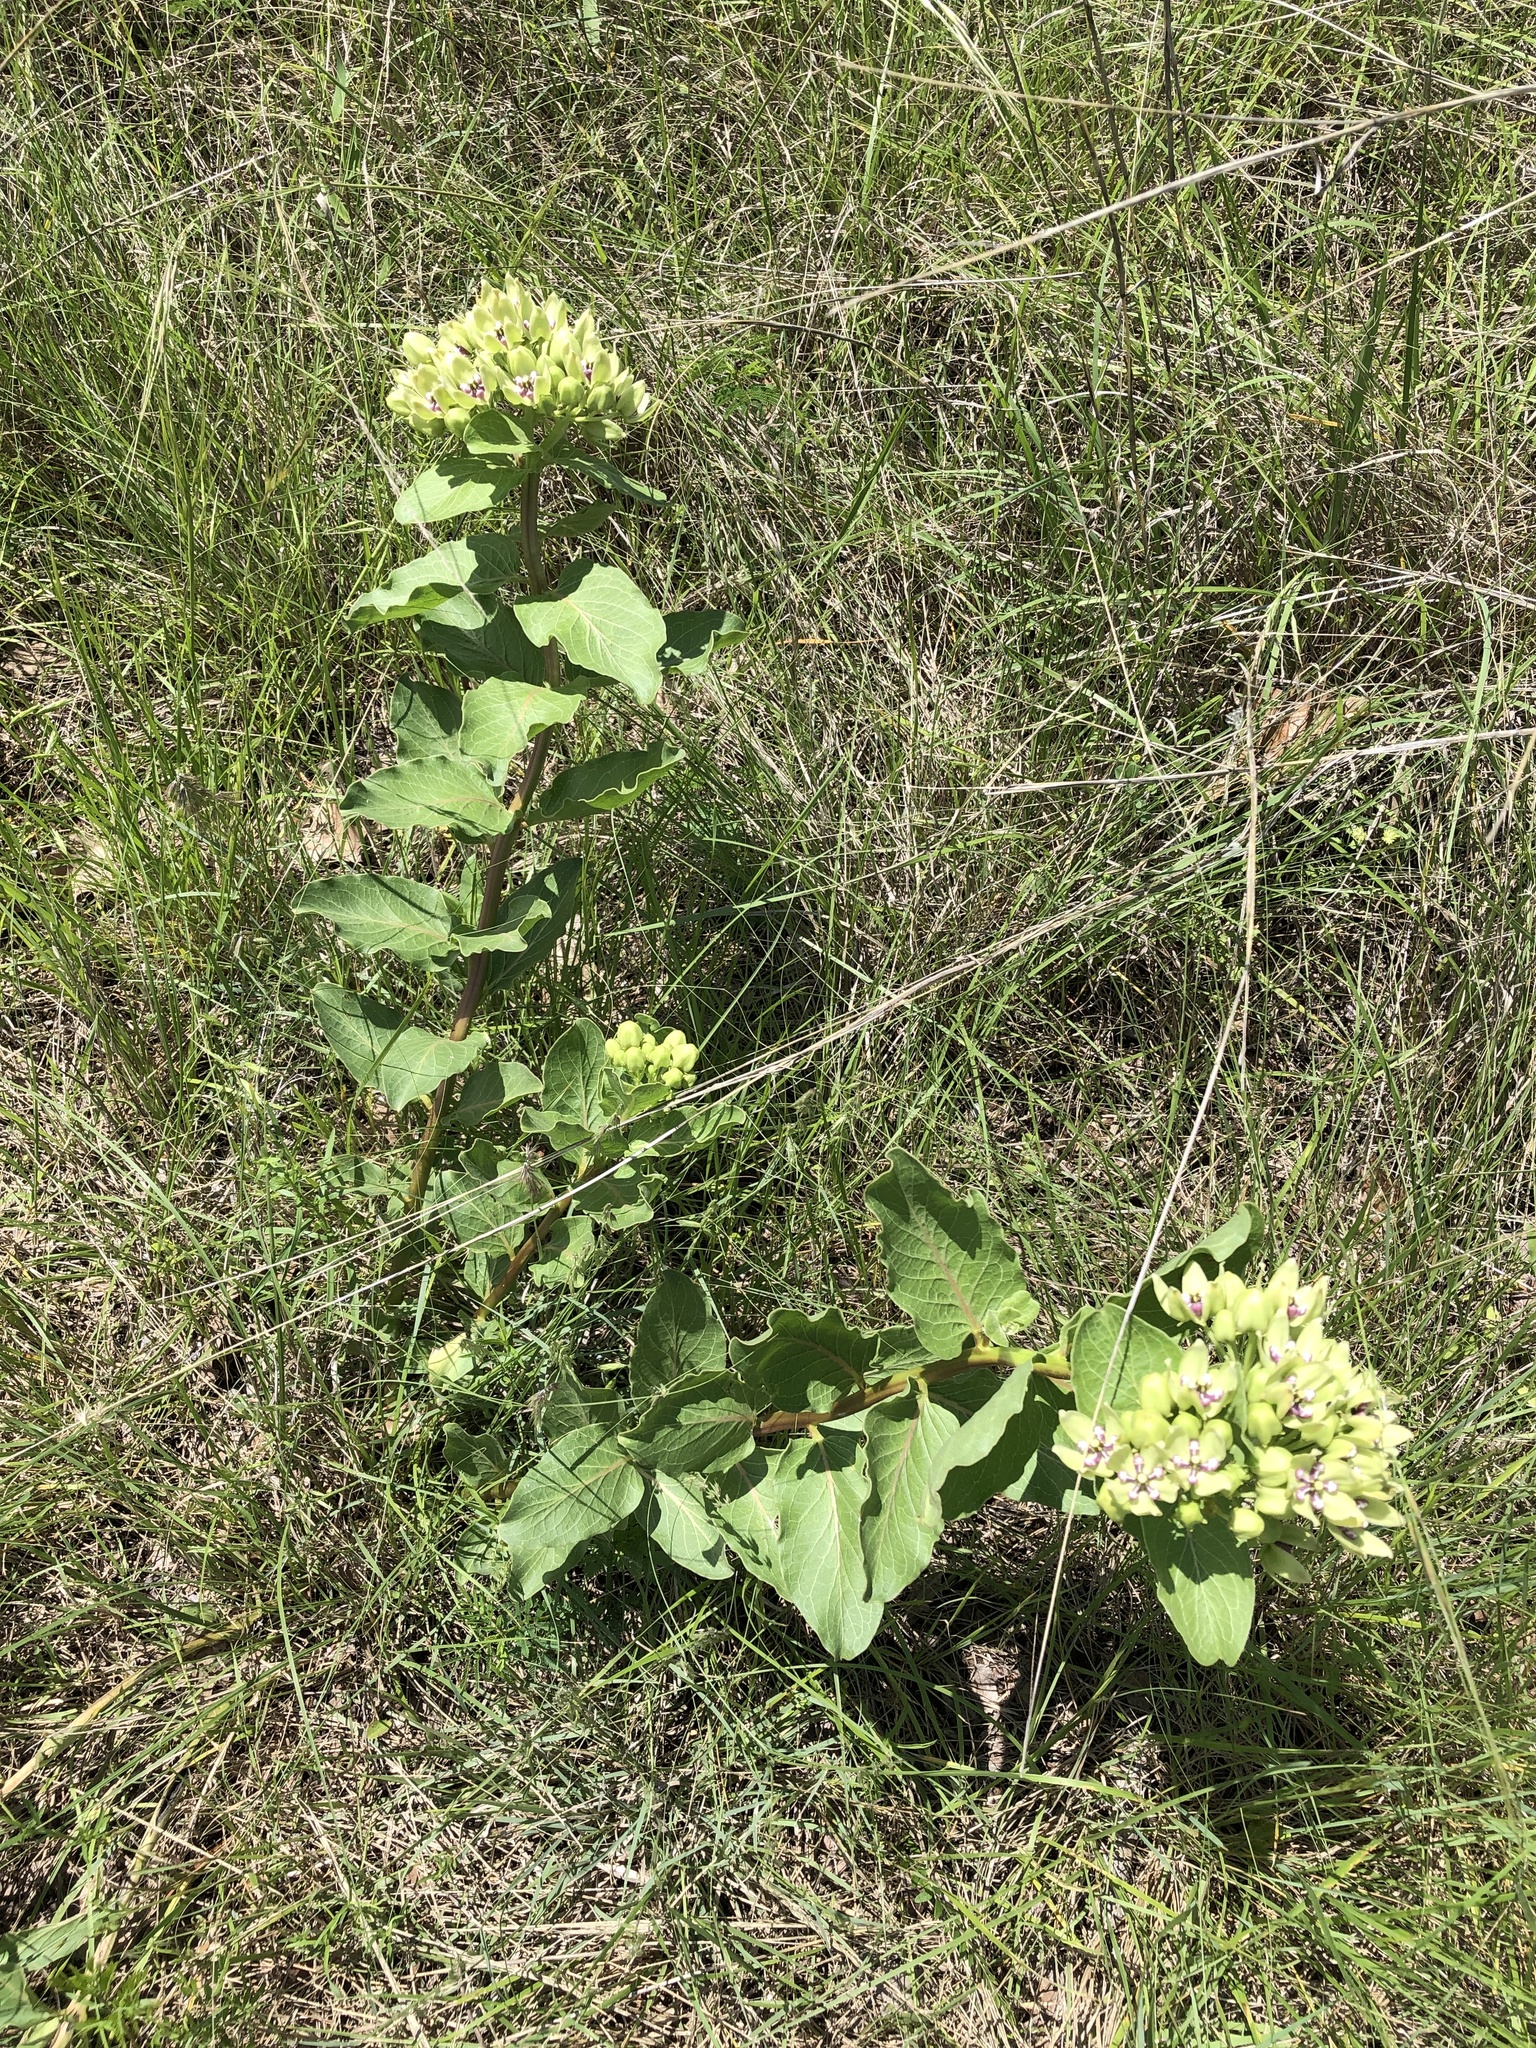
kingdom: Plantae
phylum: Tracheophyta
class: Magnoliopsida
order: Gentianales
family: Apocynaceae
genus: Asclepias
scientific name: Asclepias viridis
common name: Antelope-horns
